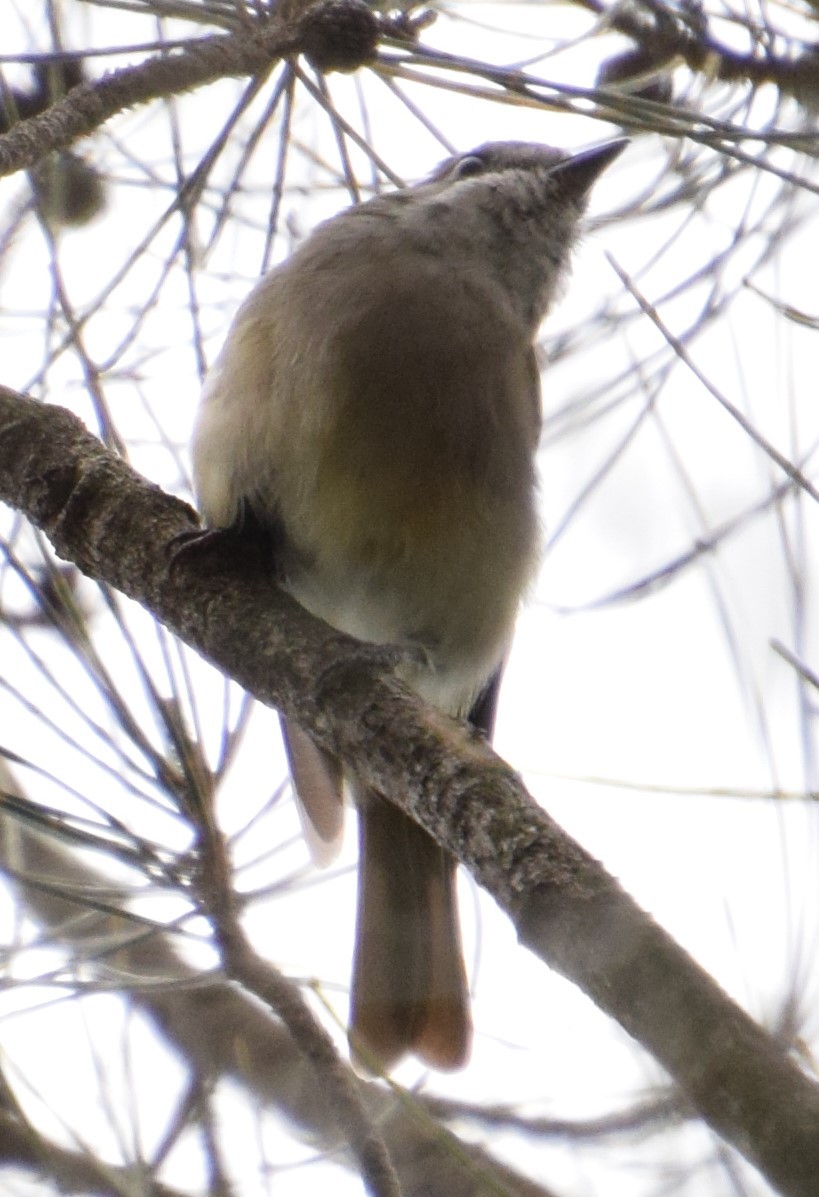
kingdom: Animalia
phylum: Chordata
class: Aves
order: Passeriformes
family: Pachycephalidae
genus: Pachycephala
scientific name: Pachycephala pectoralis
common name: Australian golden whistler
